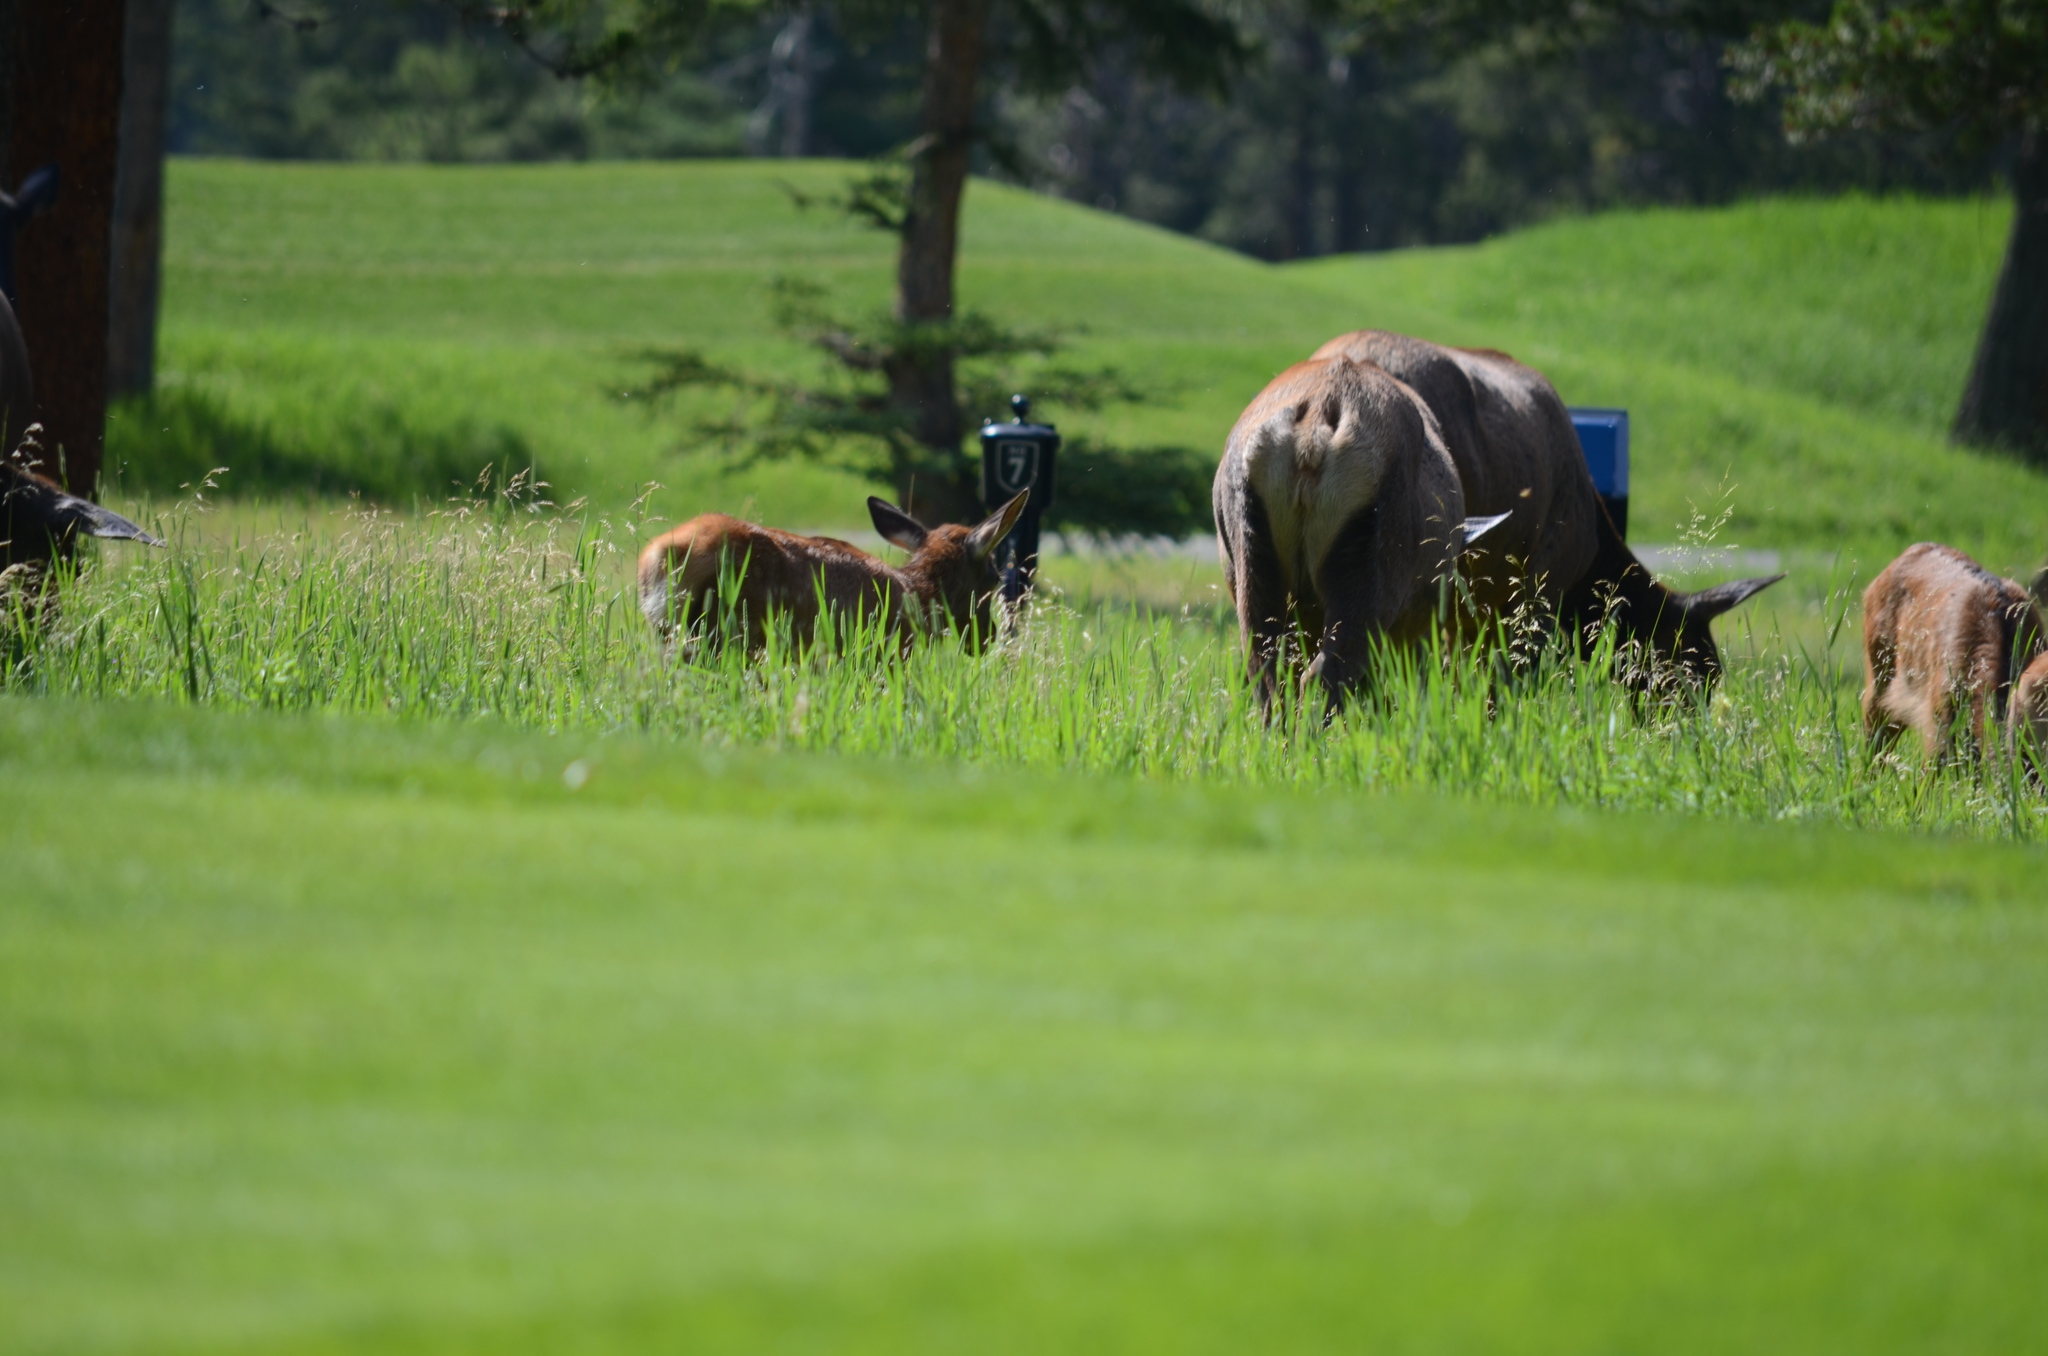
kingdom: Animalia
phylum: Chordata
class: Mammalia
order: Artiodactyla
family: Cervidae
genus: Cervus
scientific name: Cervus elaphus
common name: Red deer
